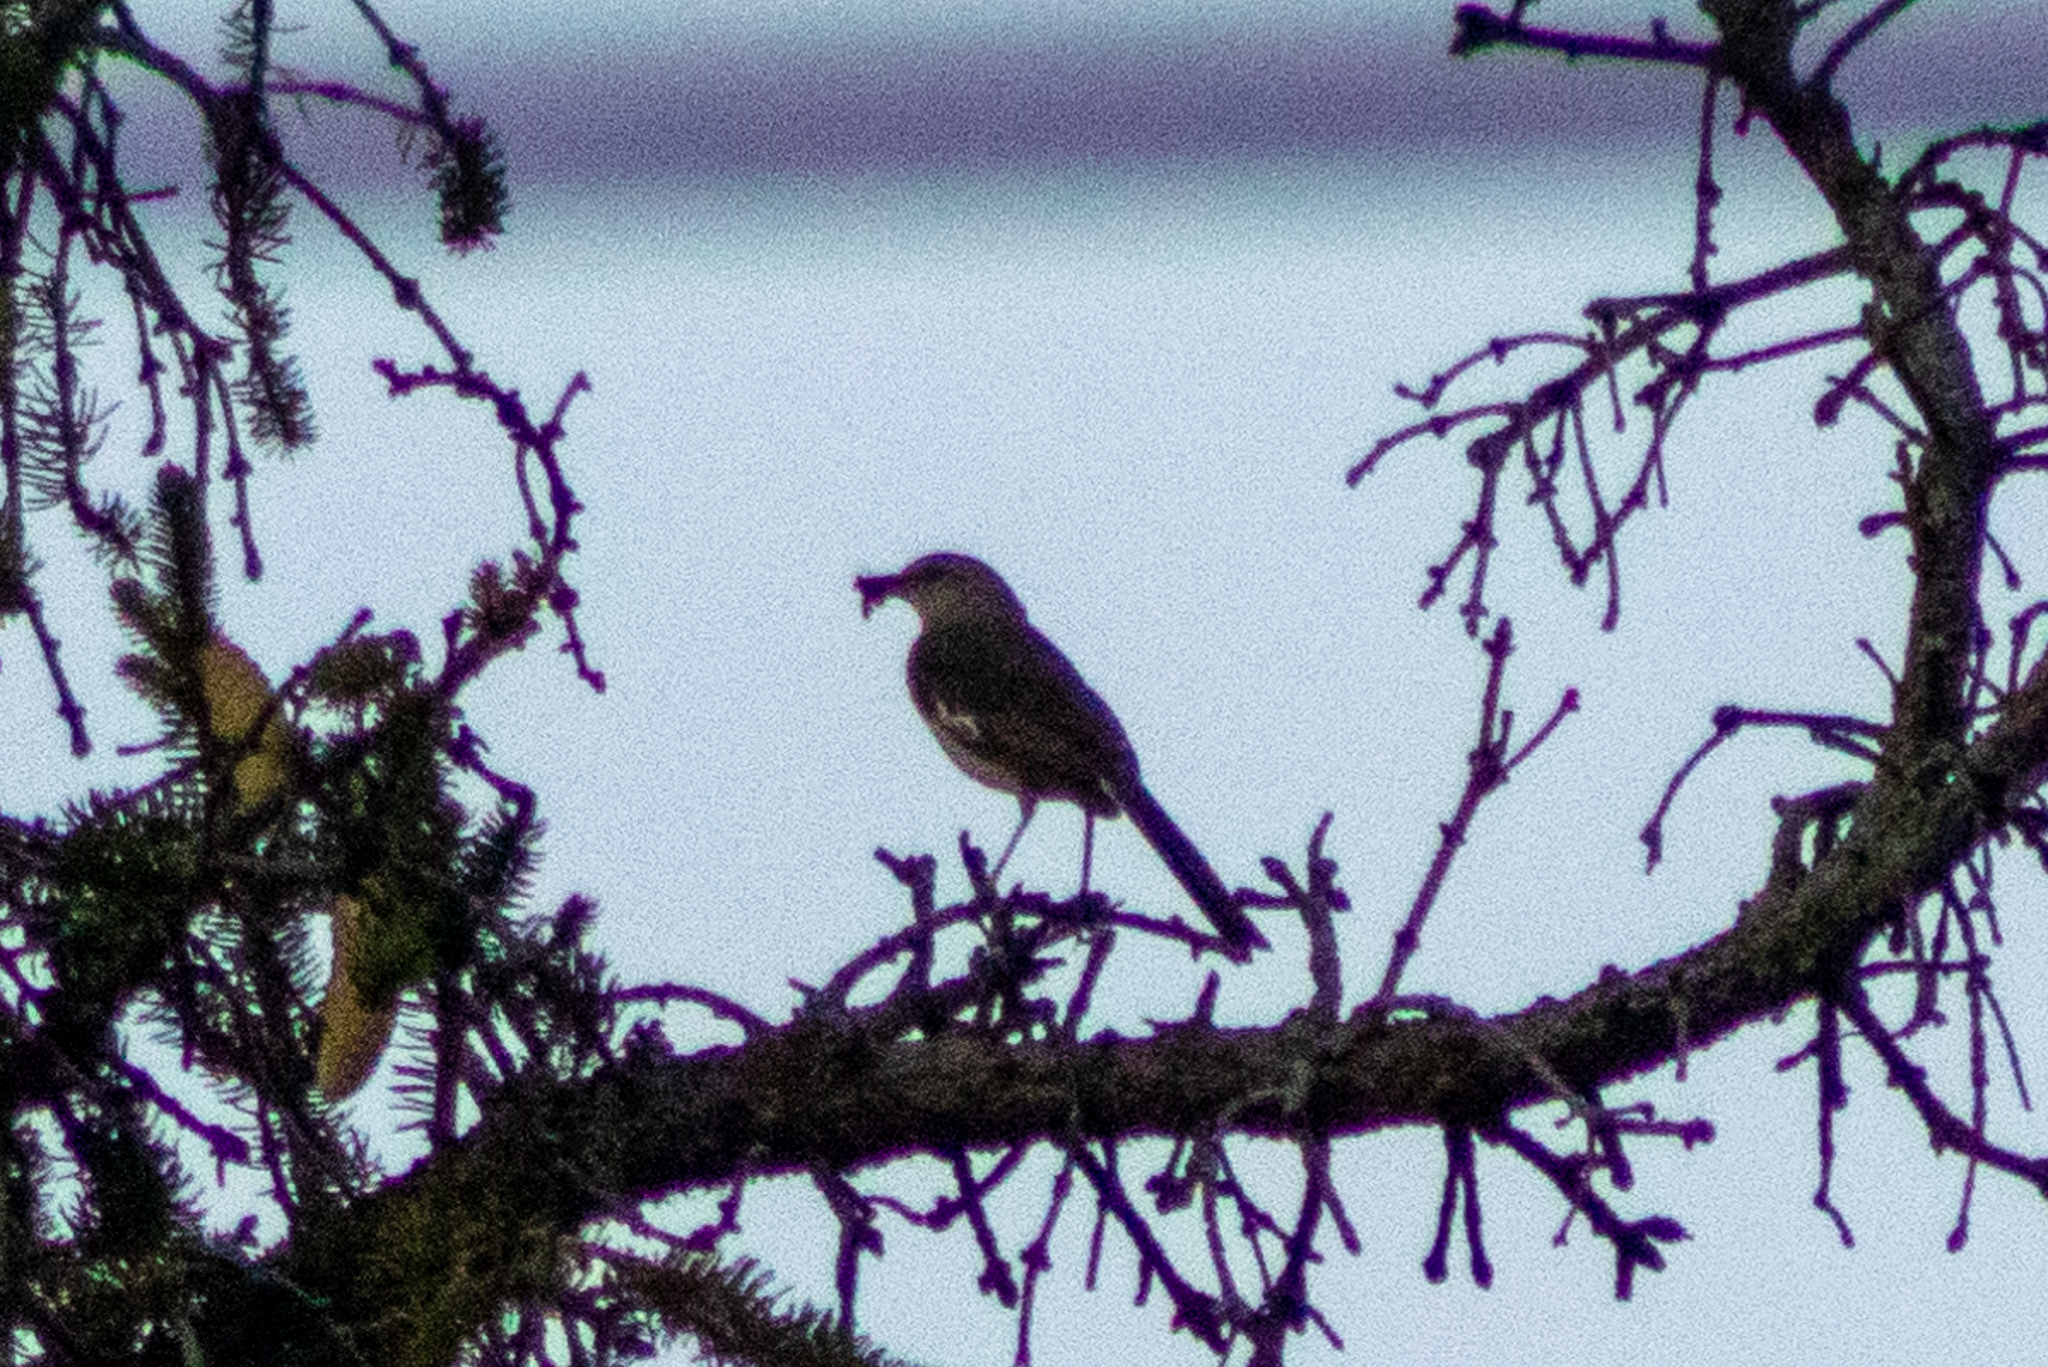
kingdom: Animalia
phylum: Chordata
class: Aves
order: Passeriformes
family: Mimidae
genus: Mimus
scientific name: Mimus polyglottos
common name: Northern mockingbird
